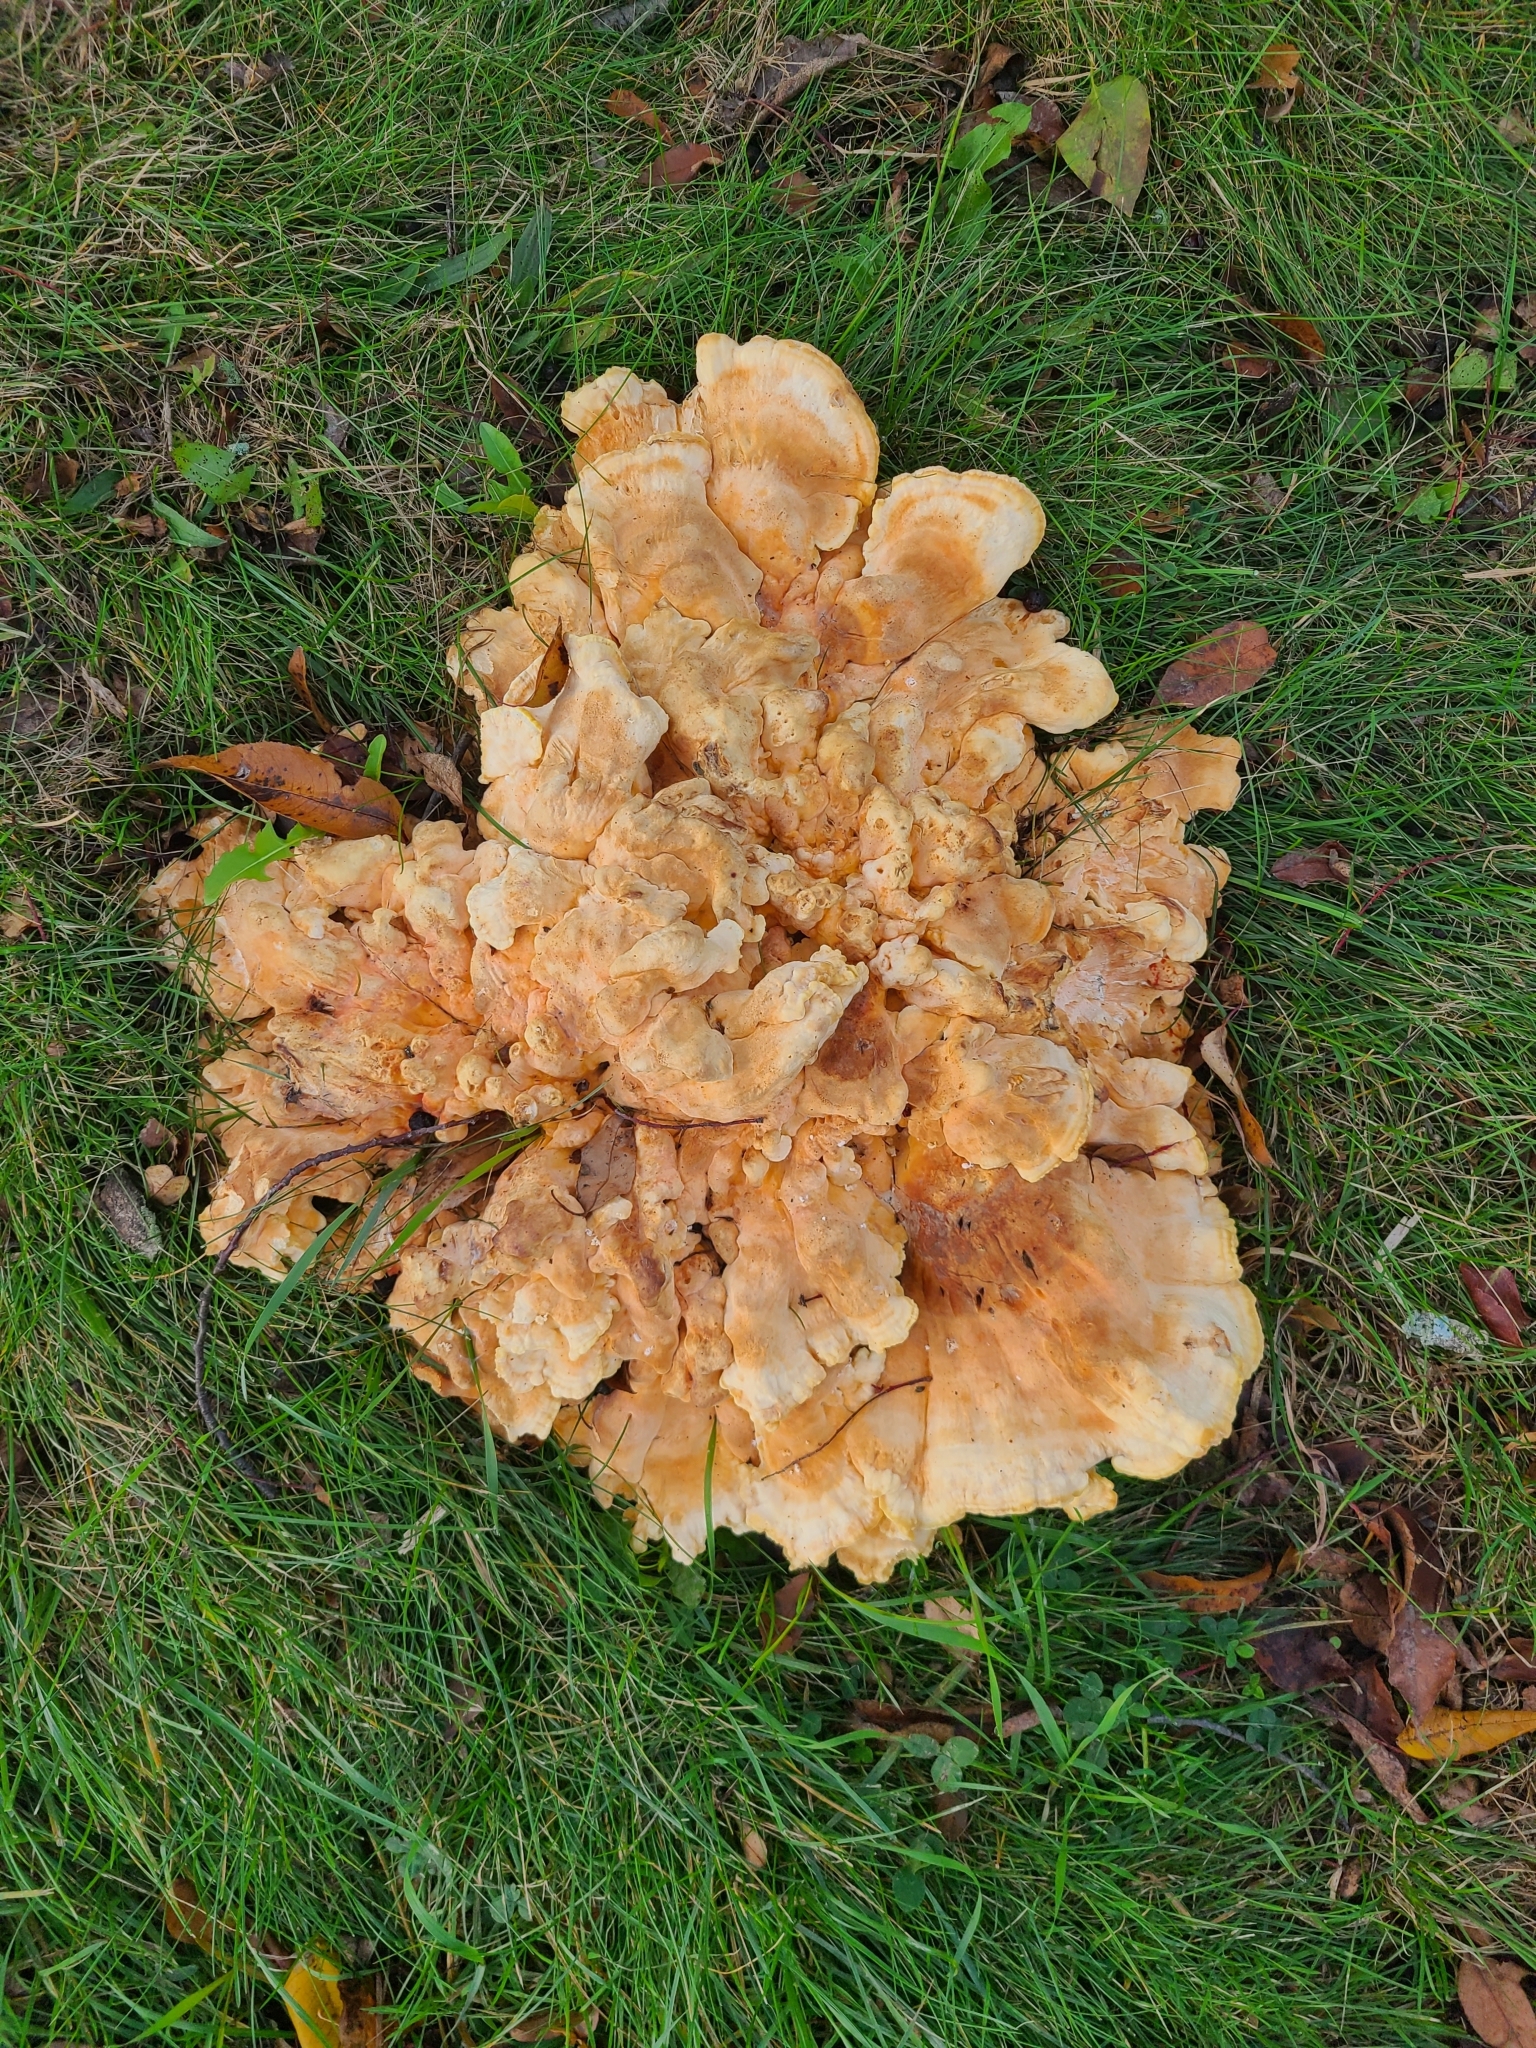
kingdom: Fungi
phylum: Basidiomycota
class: Agaricomycetes
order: Polyporales
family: Laetiporaceae
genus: Laetiporus
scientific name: Laetiporus sulphureus
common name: Chicken of the woods
